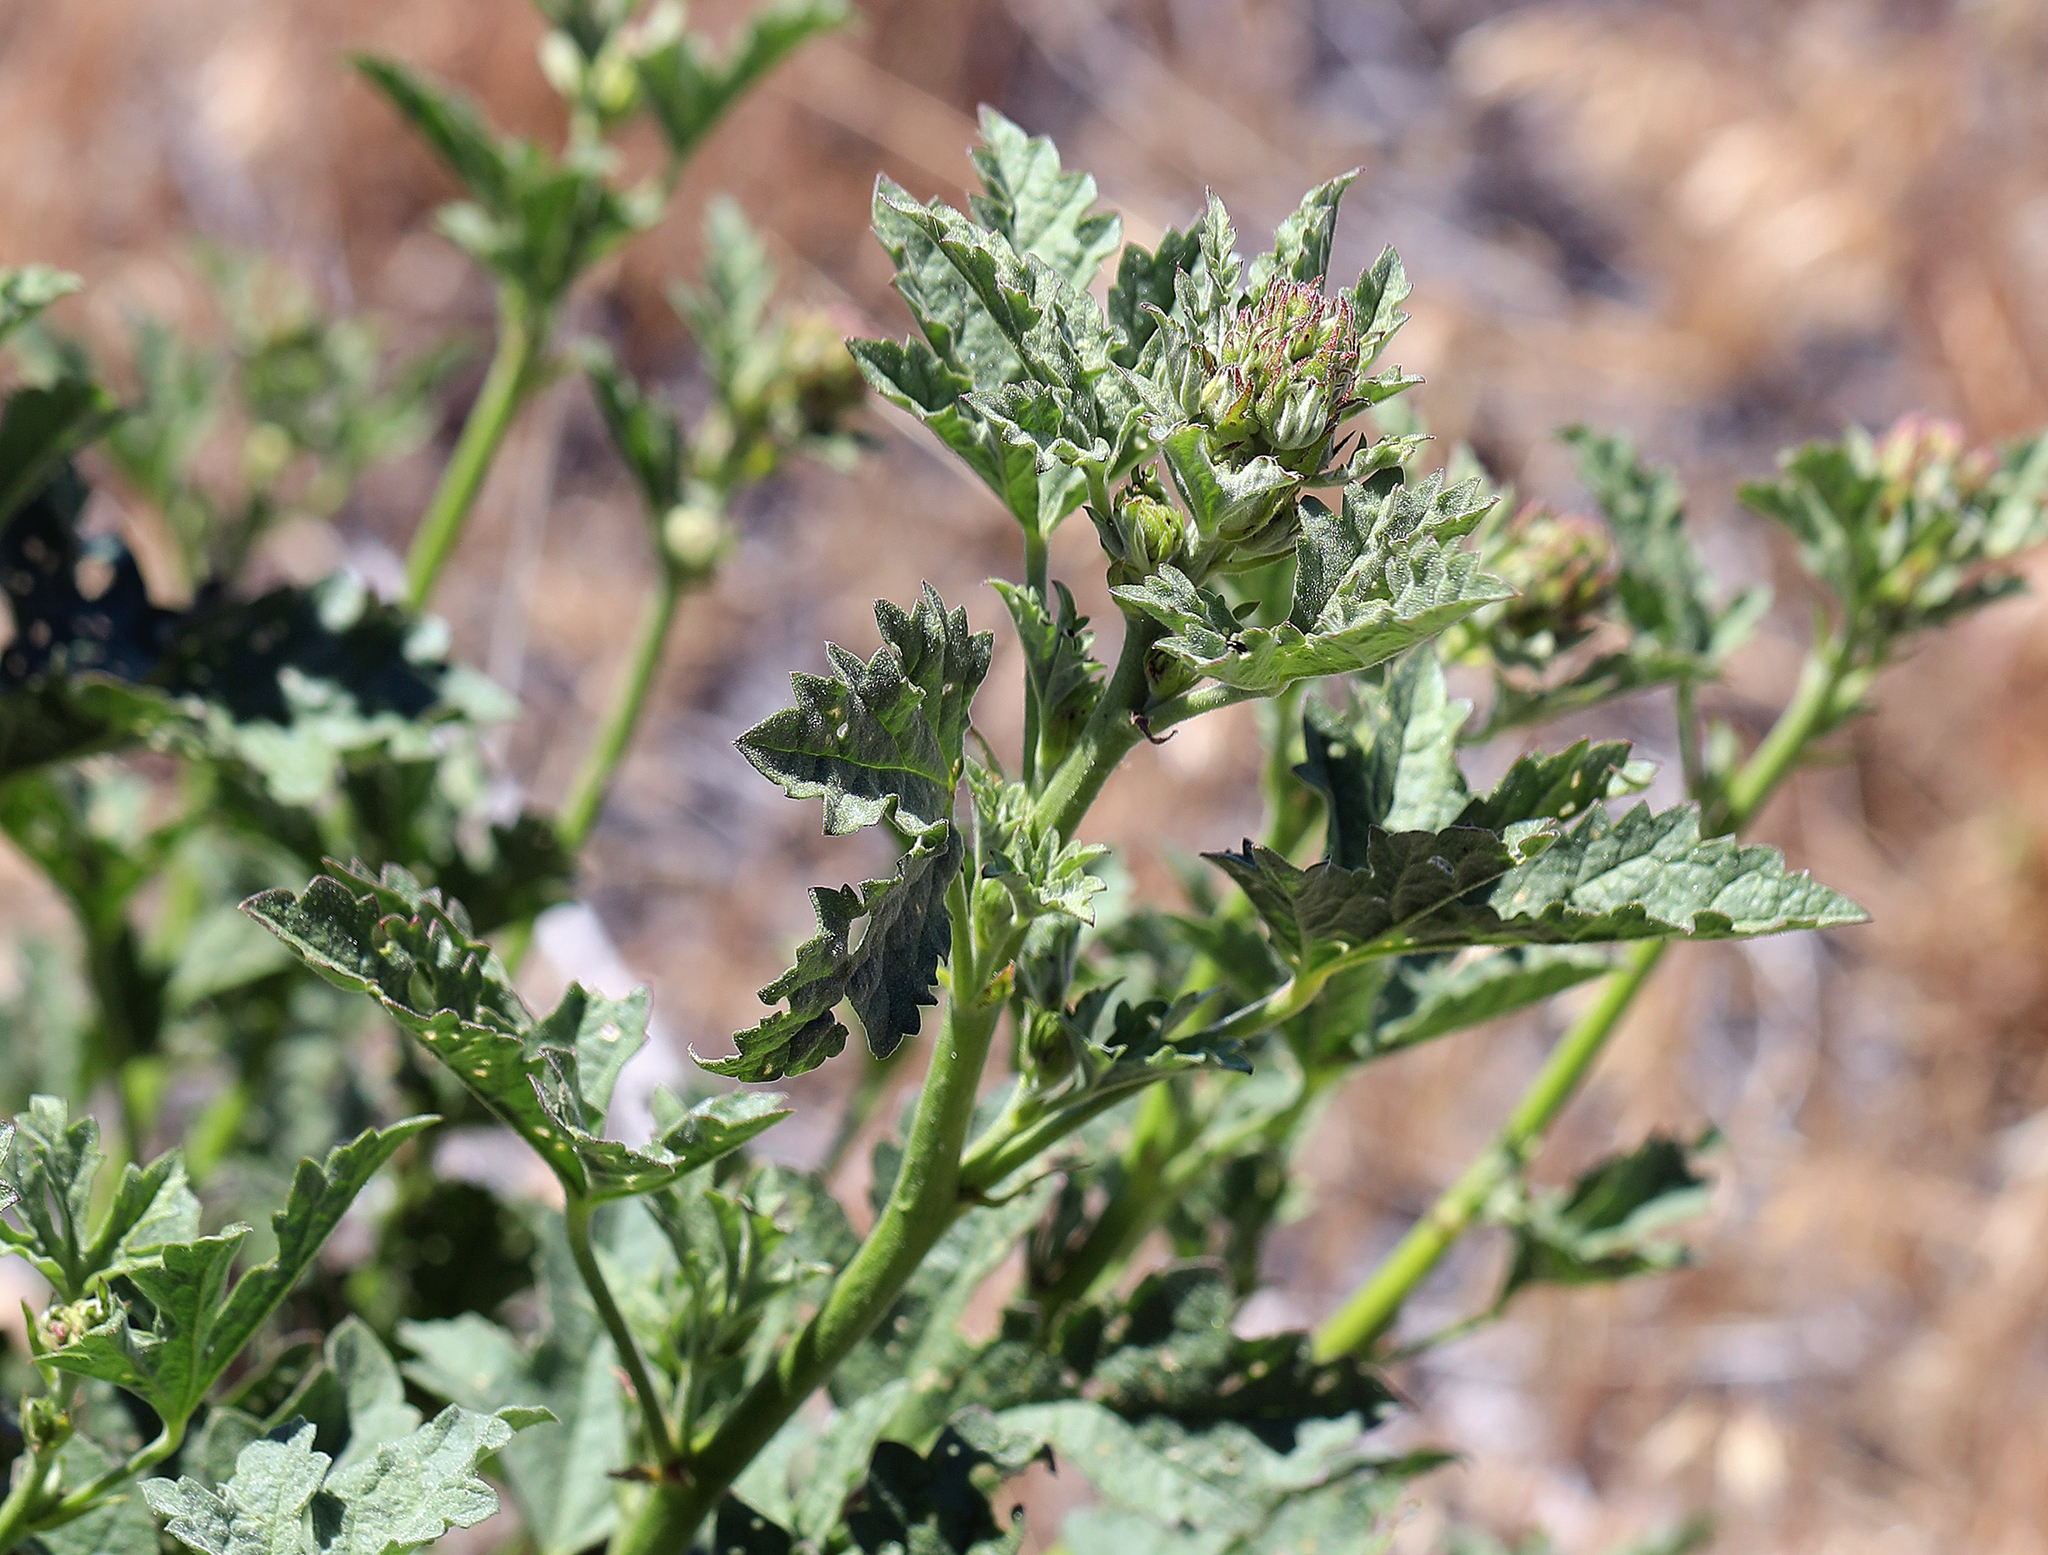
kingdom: Plantae
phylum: Tracheophyta
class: Magnoliopsida
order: Malvales
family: Malvaceae
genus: Iliamna
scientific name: Iliamna bakeri
